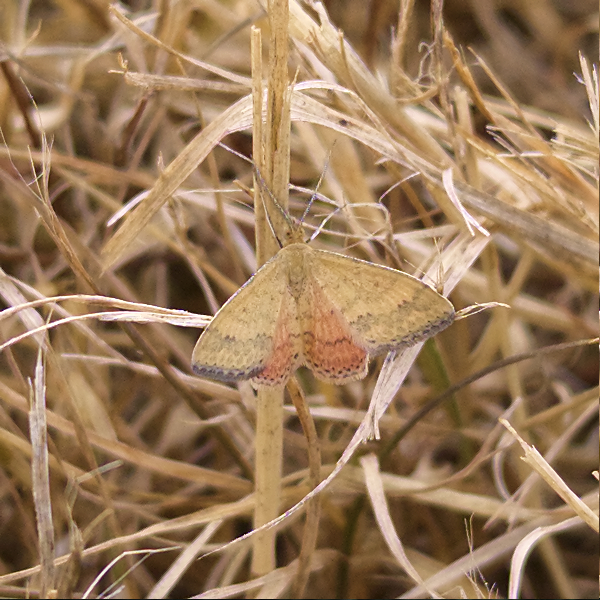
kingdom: Animalia
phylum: Arthropoda
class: Insecta
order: Lepidoptera
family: Geometridae
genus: Scopula
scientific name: Scopula rubraria
